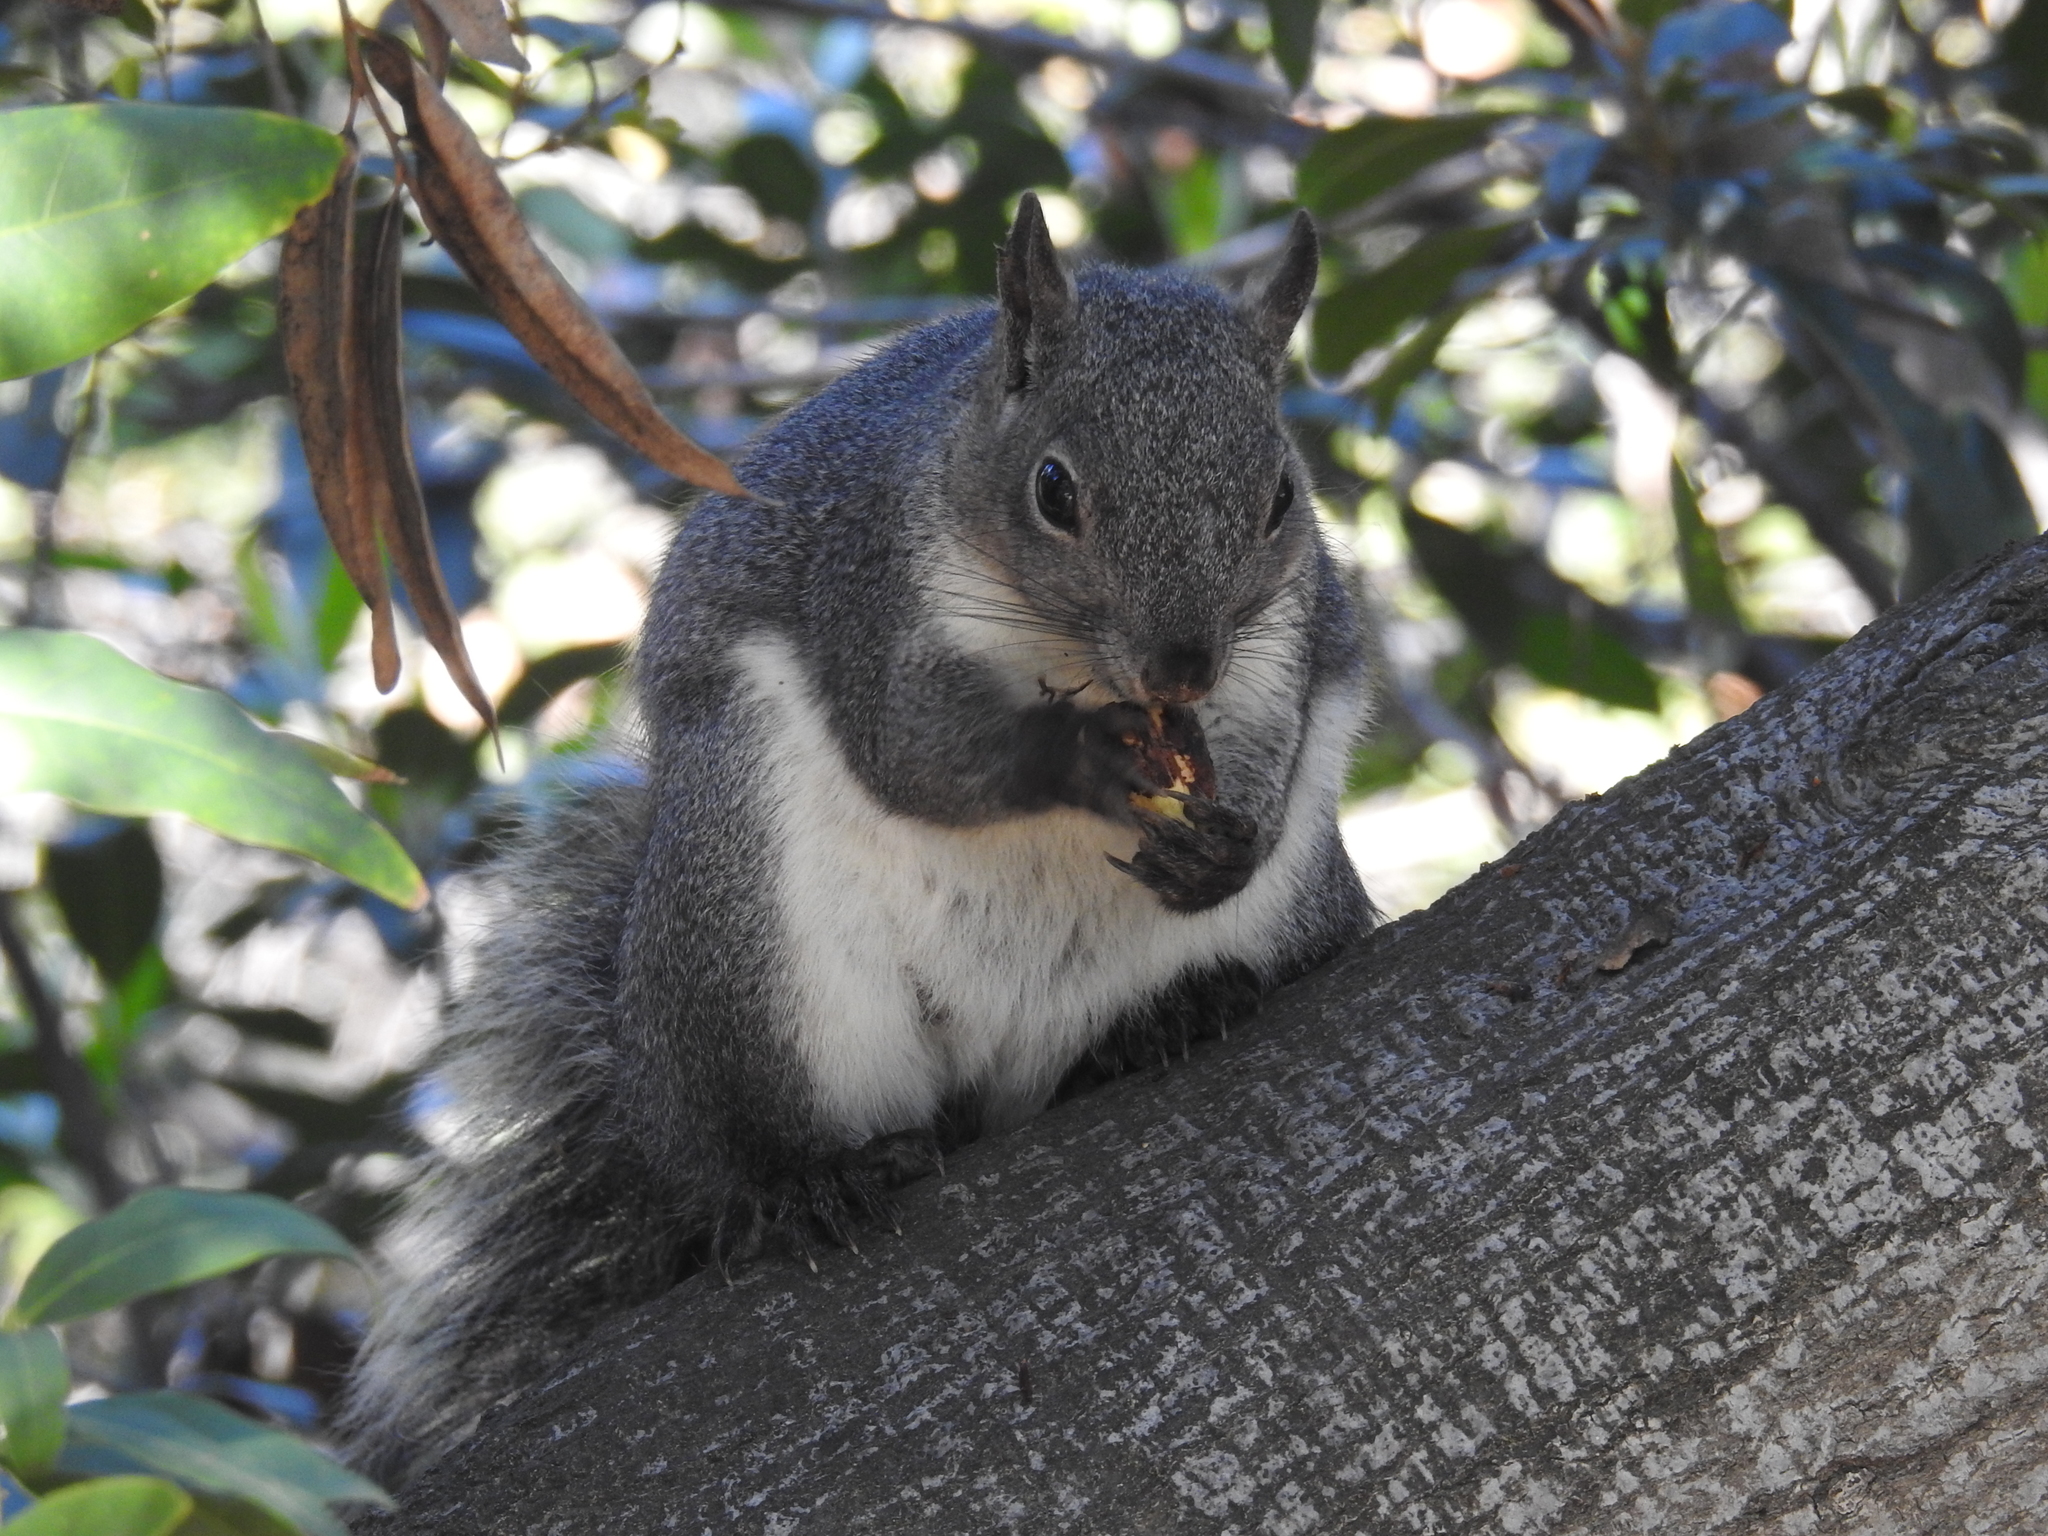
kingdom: Animalia
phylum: Chordata
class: Mammalia
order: Rodentia
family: Sciuridae
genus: Sciurus
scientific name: Sciurus griseus
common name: Western gray squirrel
